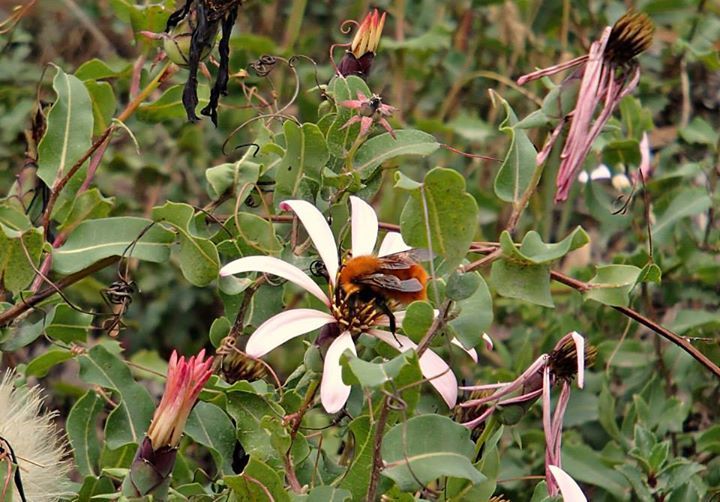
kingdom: Animalia
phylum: Arthropoda
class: Insecta
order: Hymenoptera
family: Apidae
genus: Bombus
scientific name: Bombus dahlbomii
